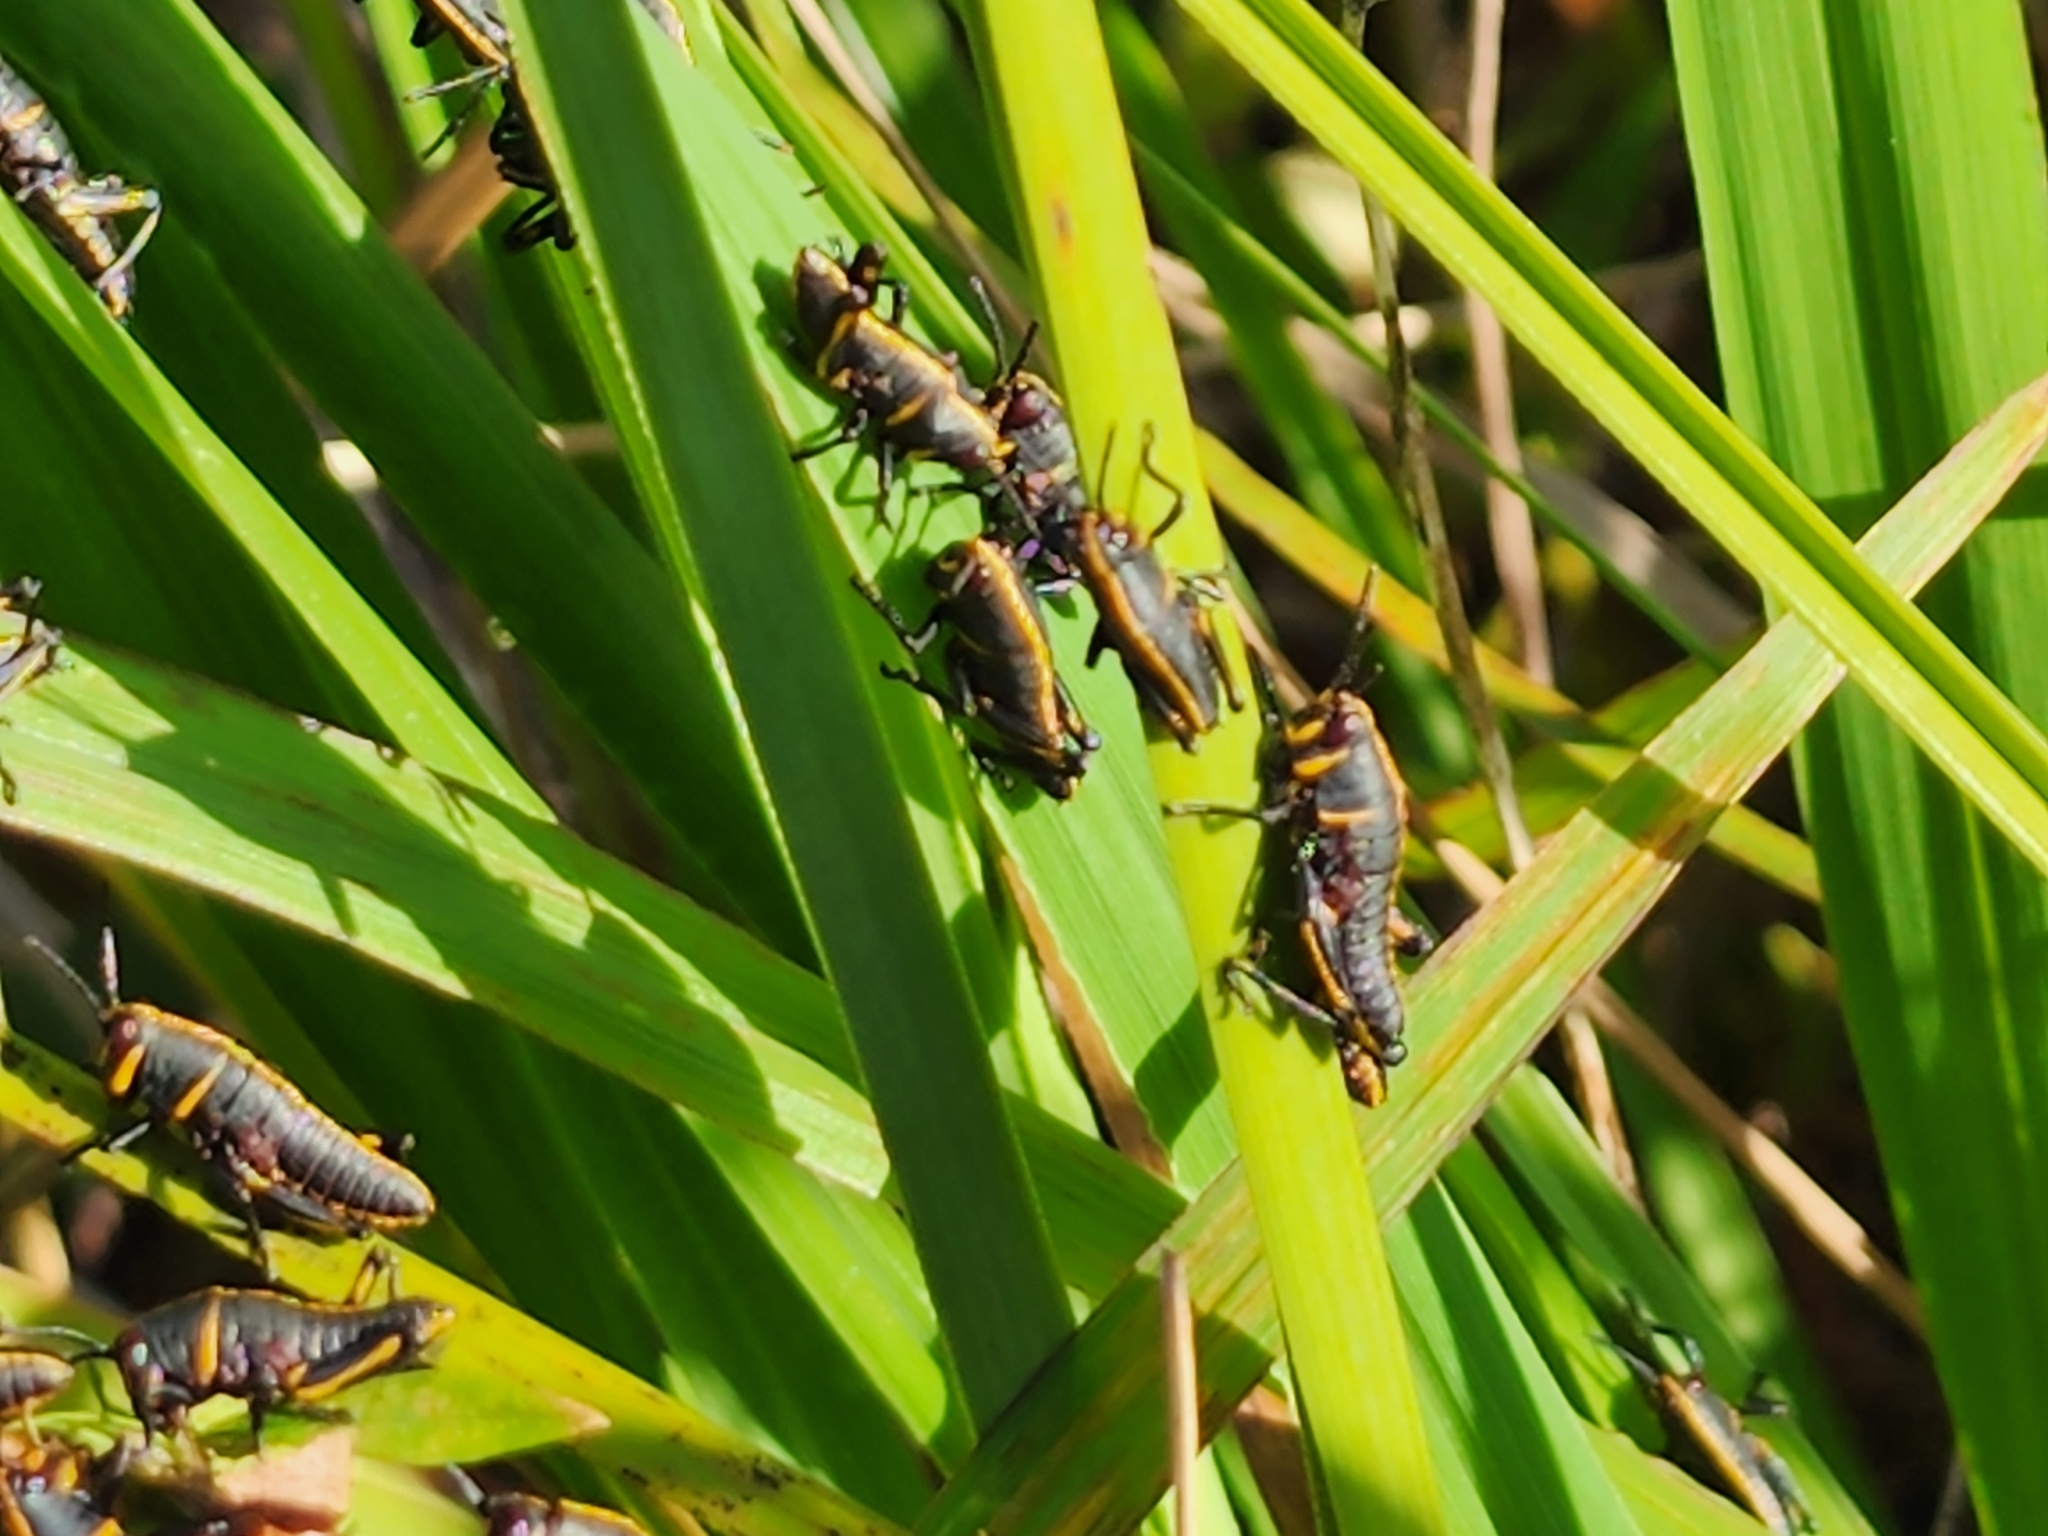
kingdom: Animalia
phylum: Arthropoda
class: Insecta
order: Orthoptera
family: Romaleidae
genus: Romalea
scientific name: Romalea microptera
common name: Eastern lubber grasshopper
